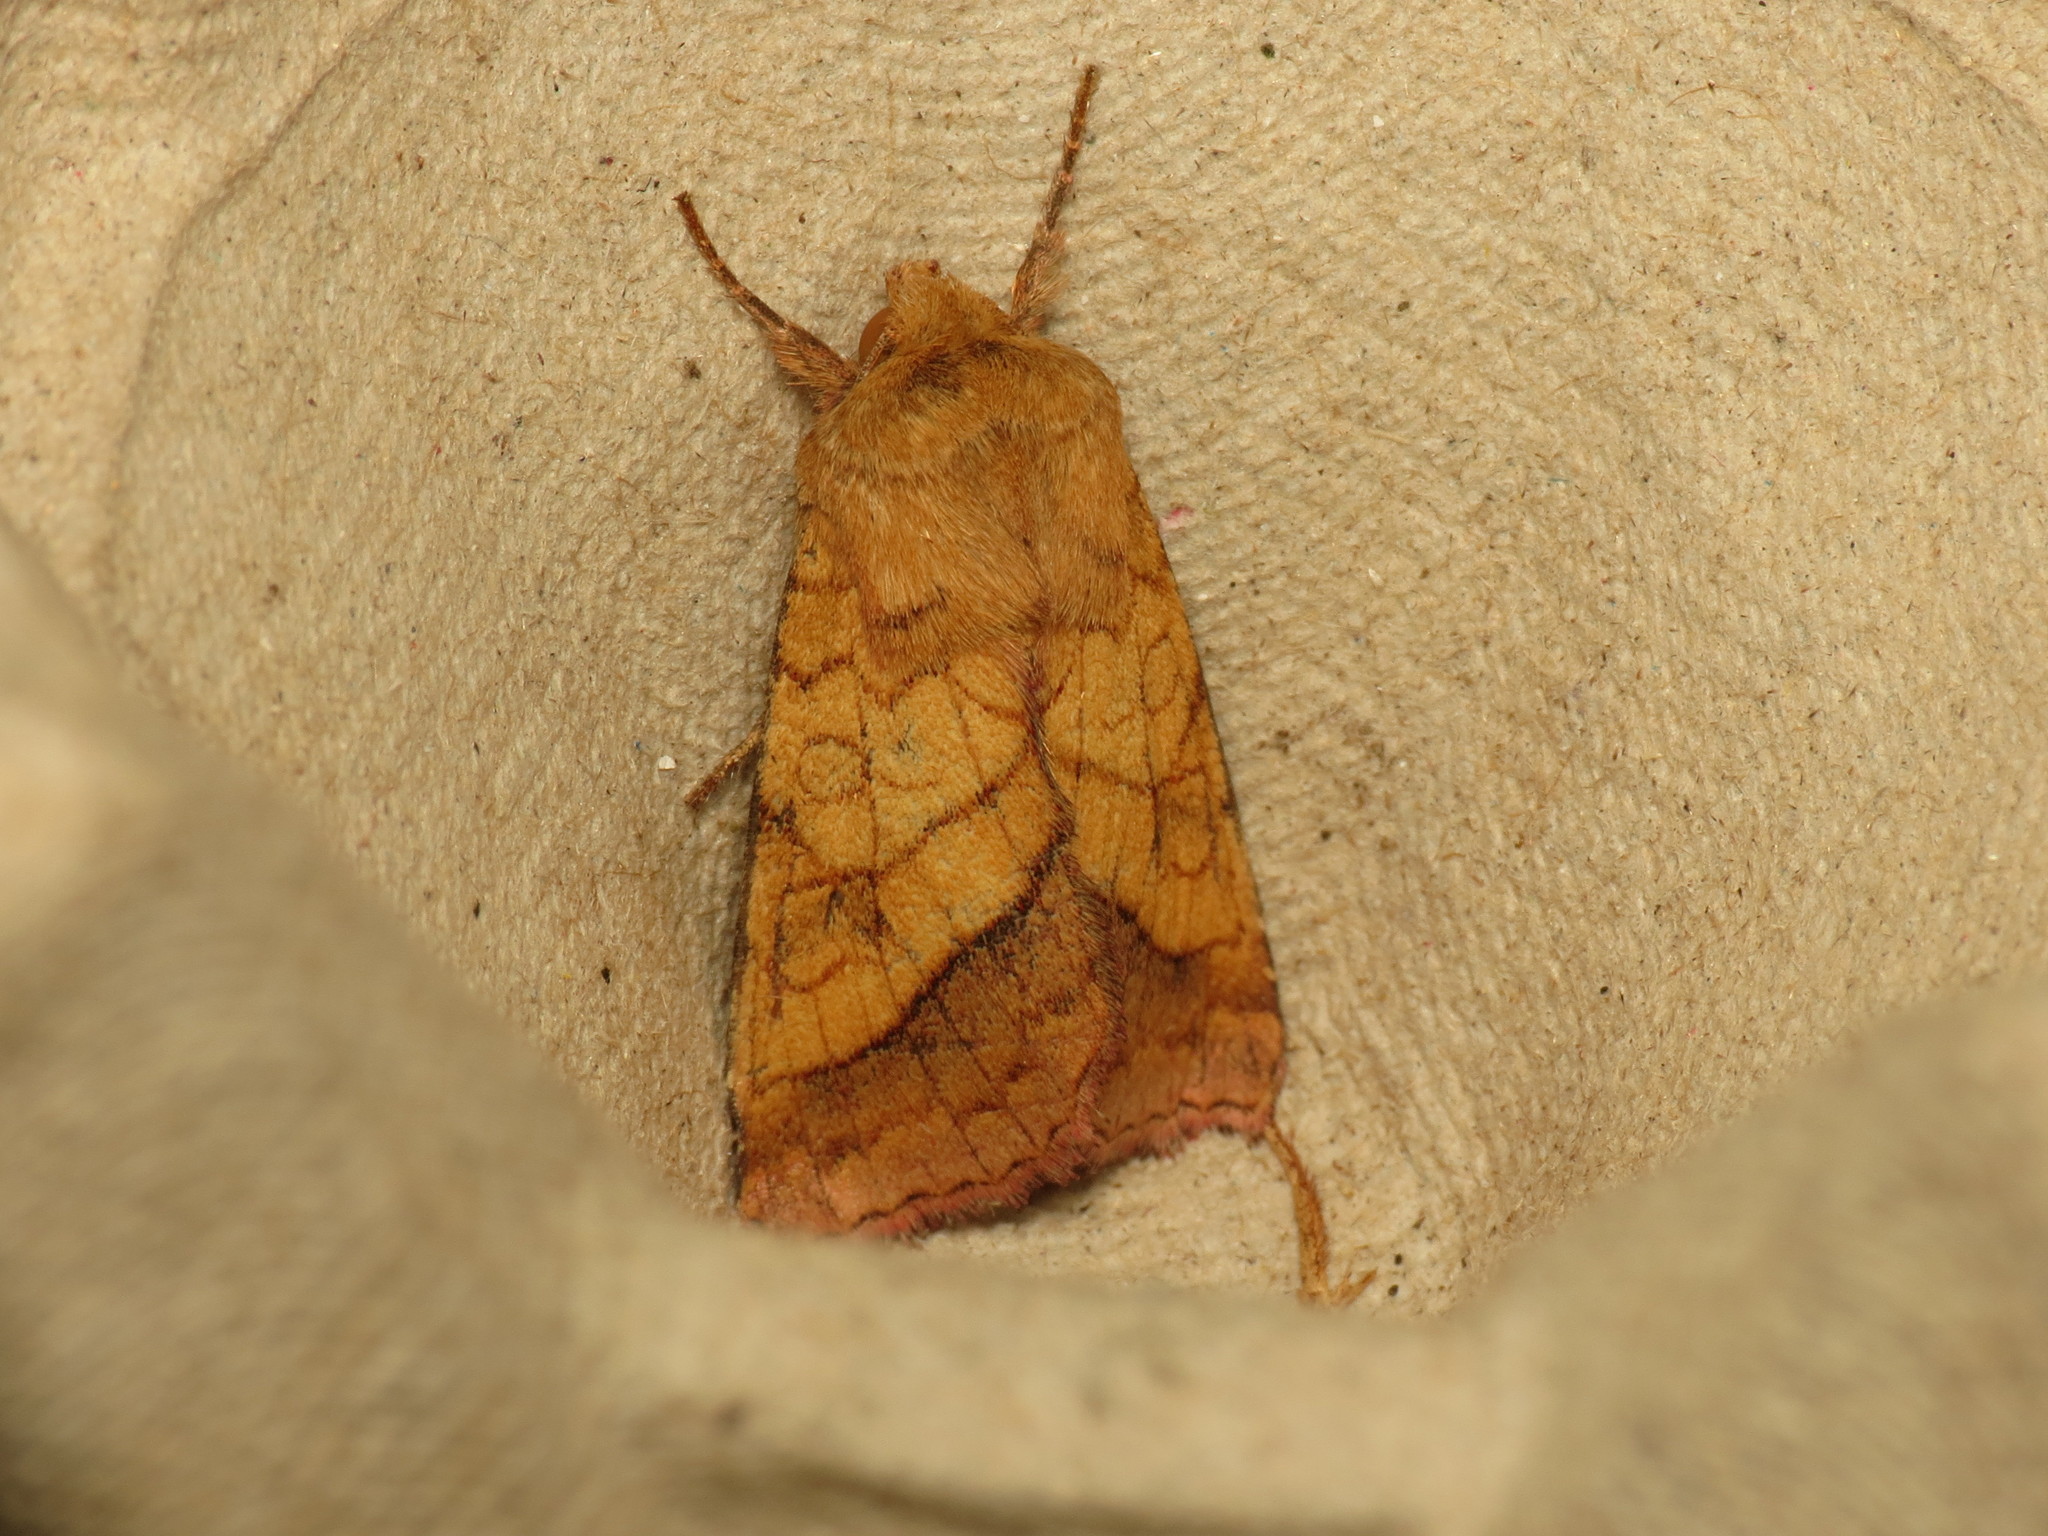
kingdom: Animalia
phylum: Arthropoda
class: Insecta
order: Lepidoptera
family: Noctuidae
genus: Pyrrhia
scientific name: Pyrrhia umbra
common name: Bordered sallow
